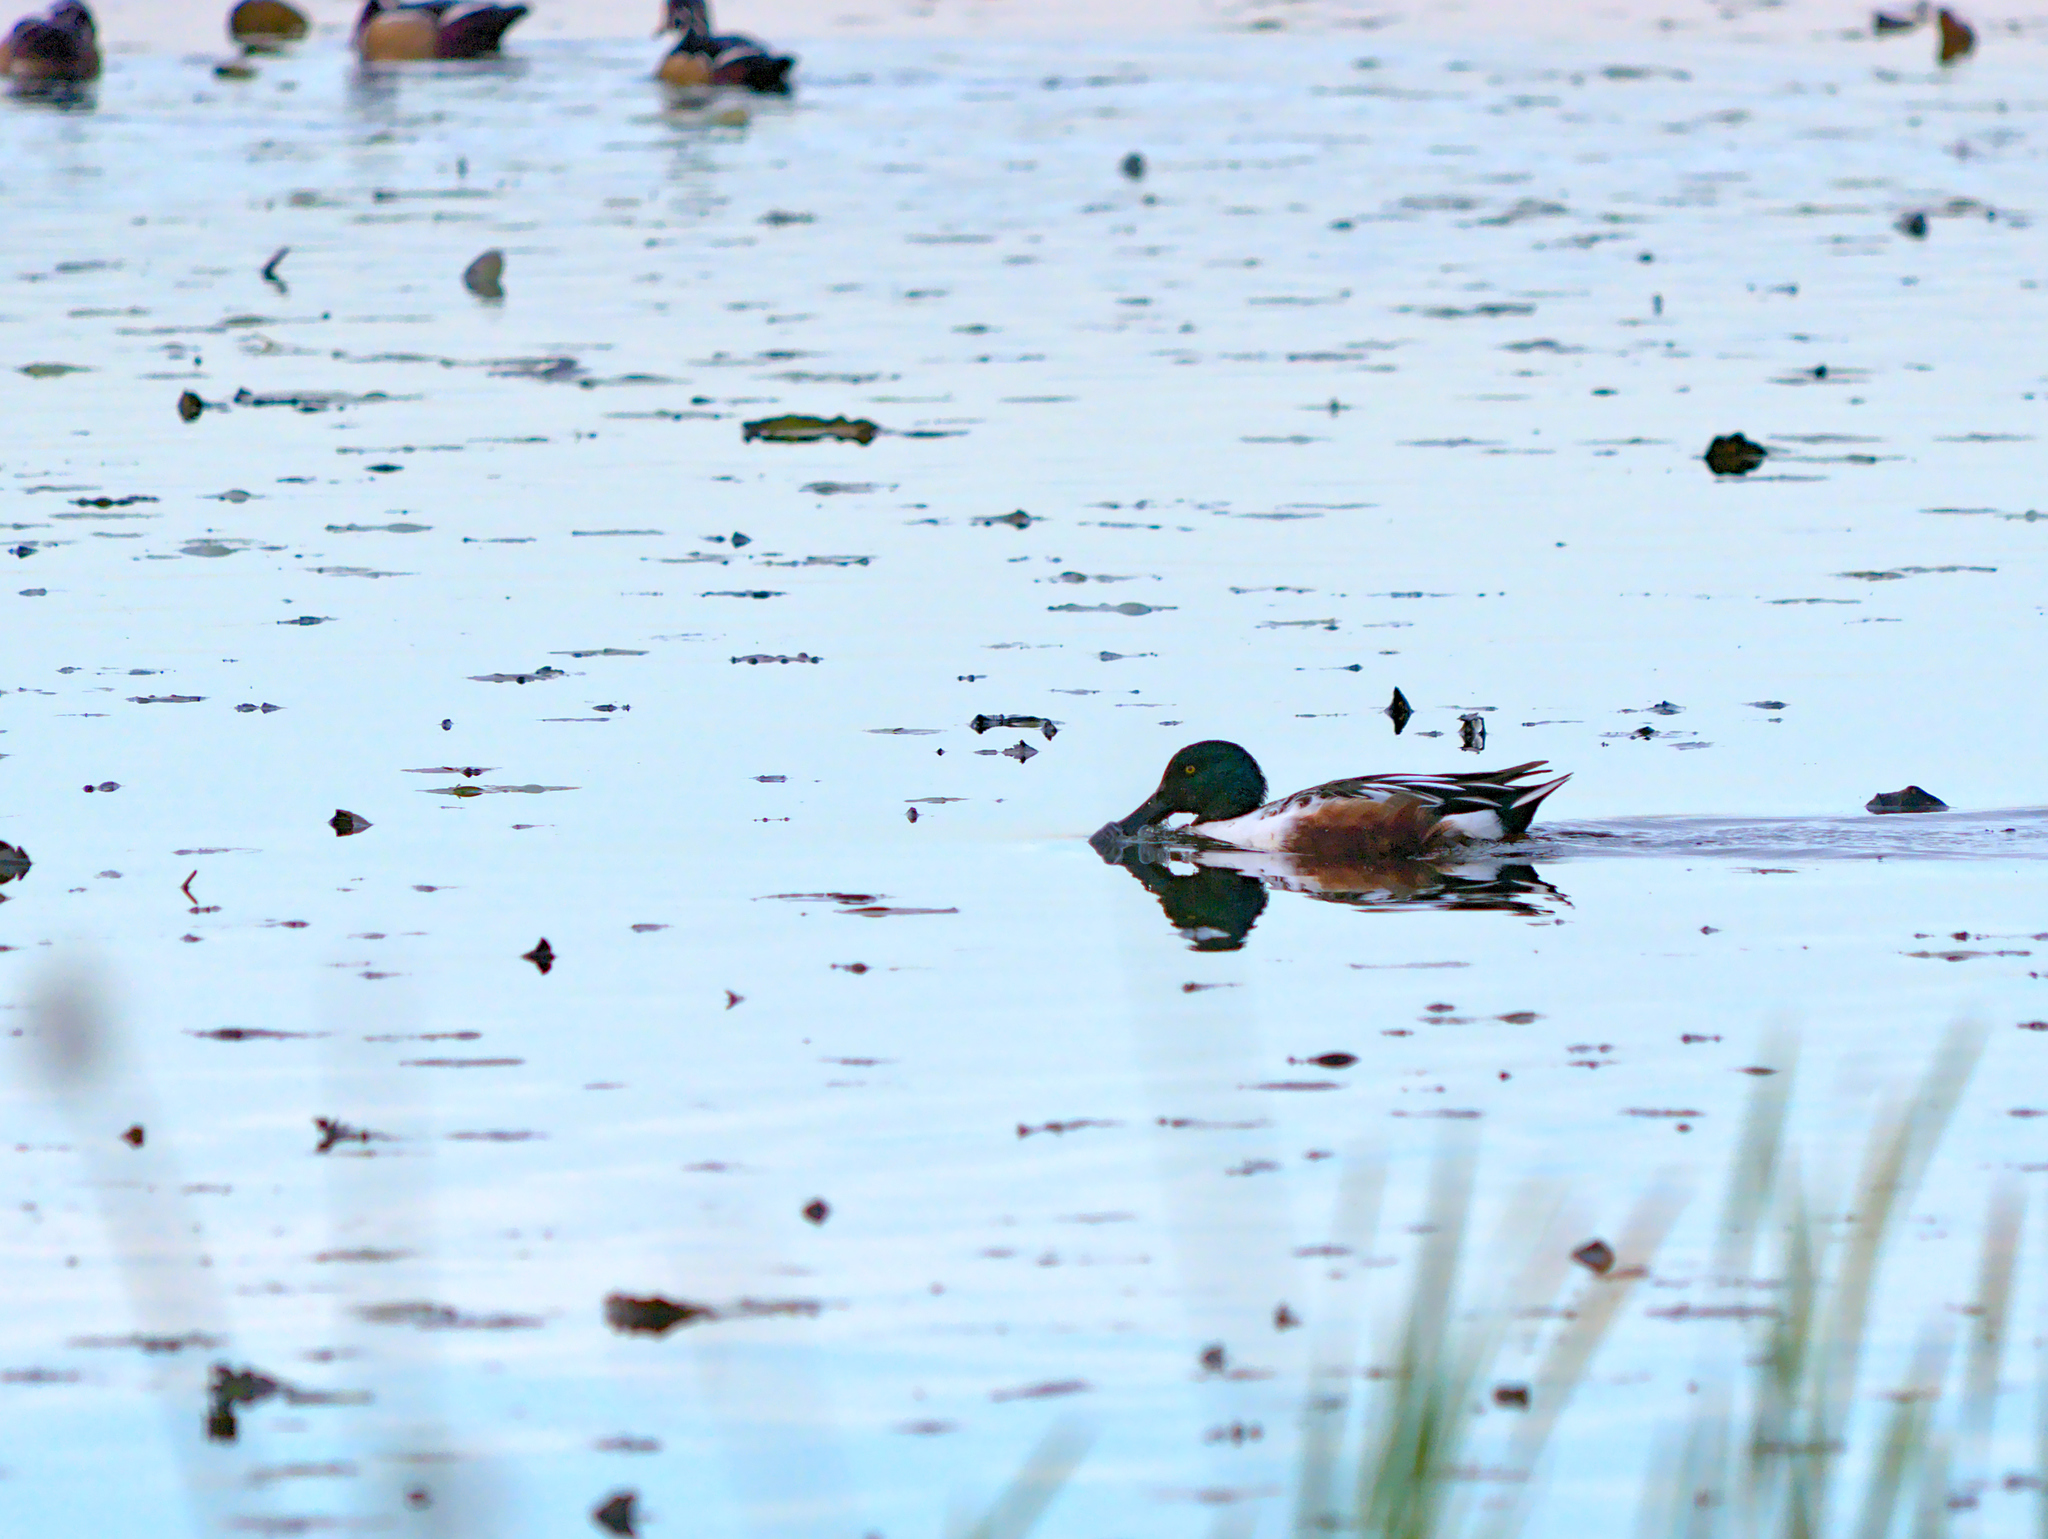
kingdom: Animalia
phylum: Chordata
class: Aves
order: Anseriformes
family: Anatidae
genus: Spatula
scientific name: Spatula clypeata
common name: Northern shoveler
